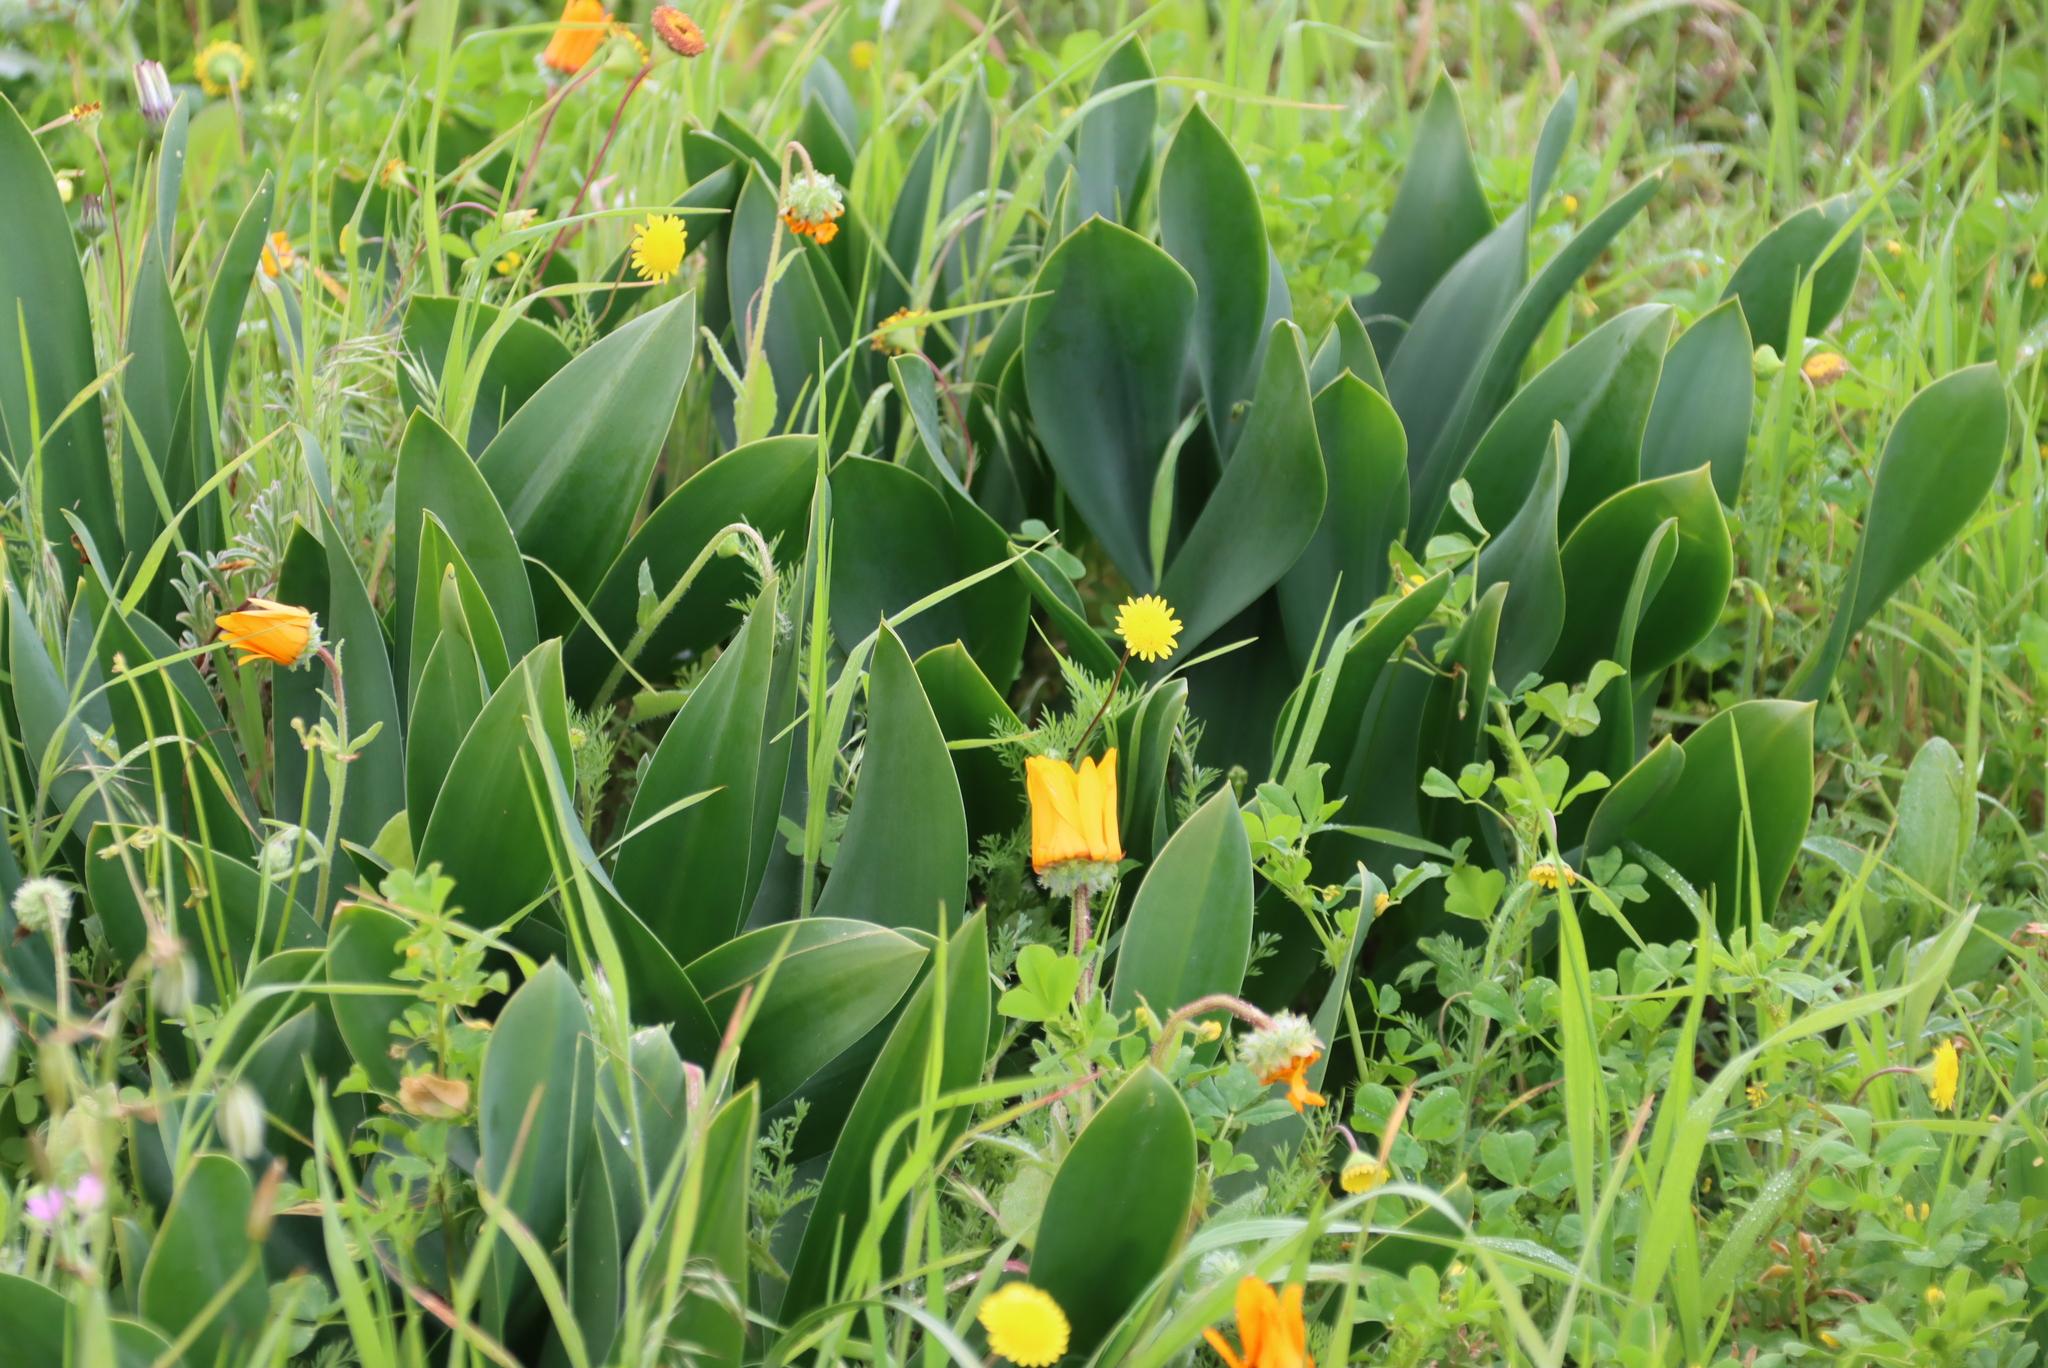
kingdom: Plantae
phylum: Tracheophyta
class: Liliopsida
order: Asparagales
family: Asparagaceae
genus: Drimia
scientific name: Drimia capensis
